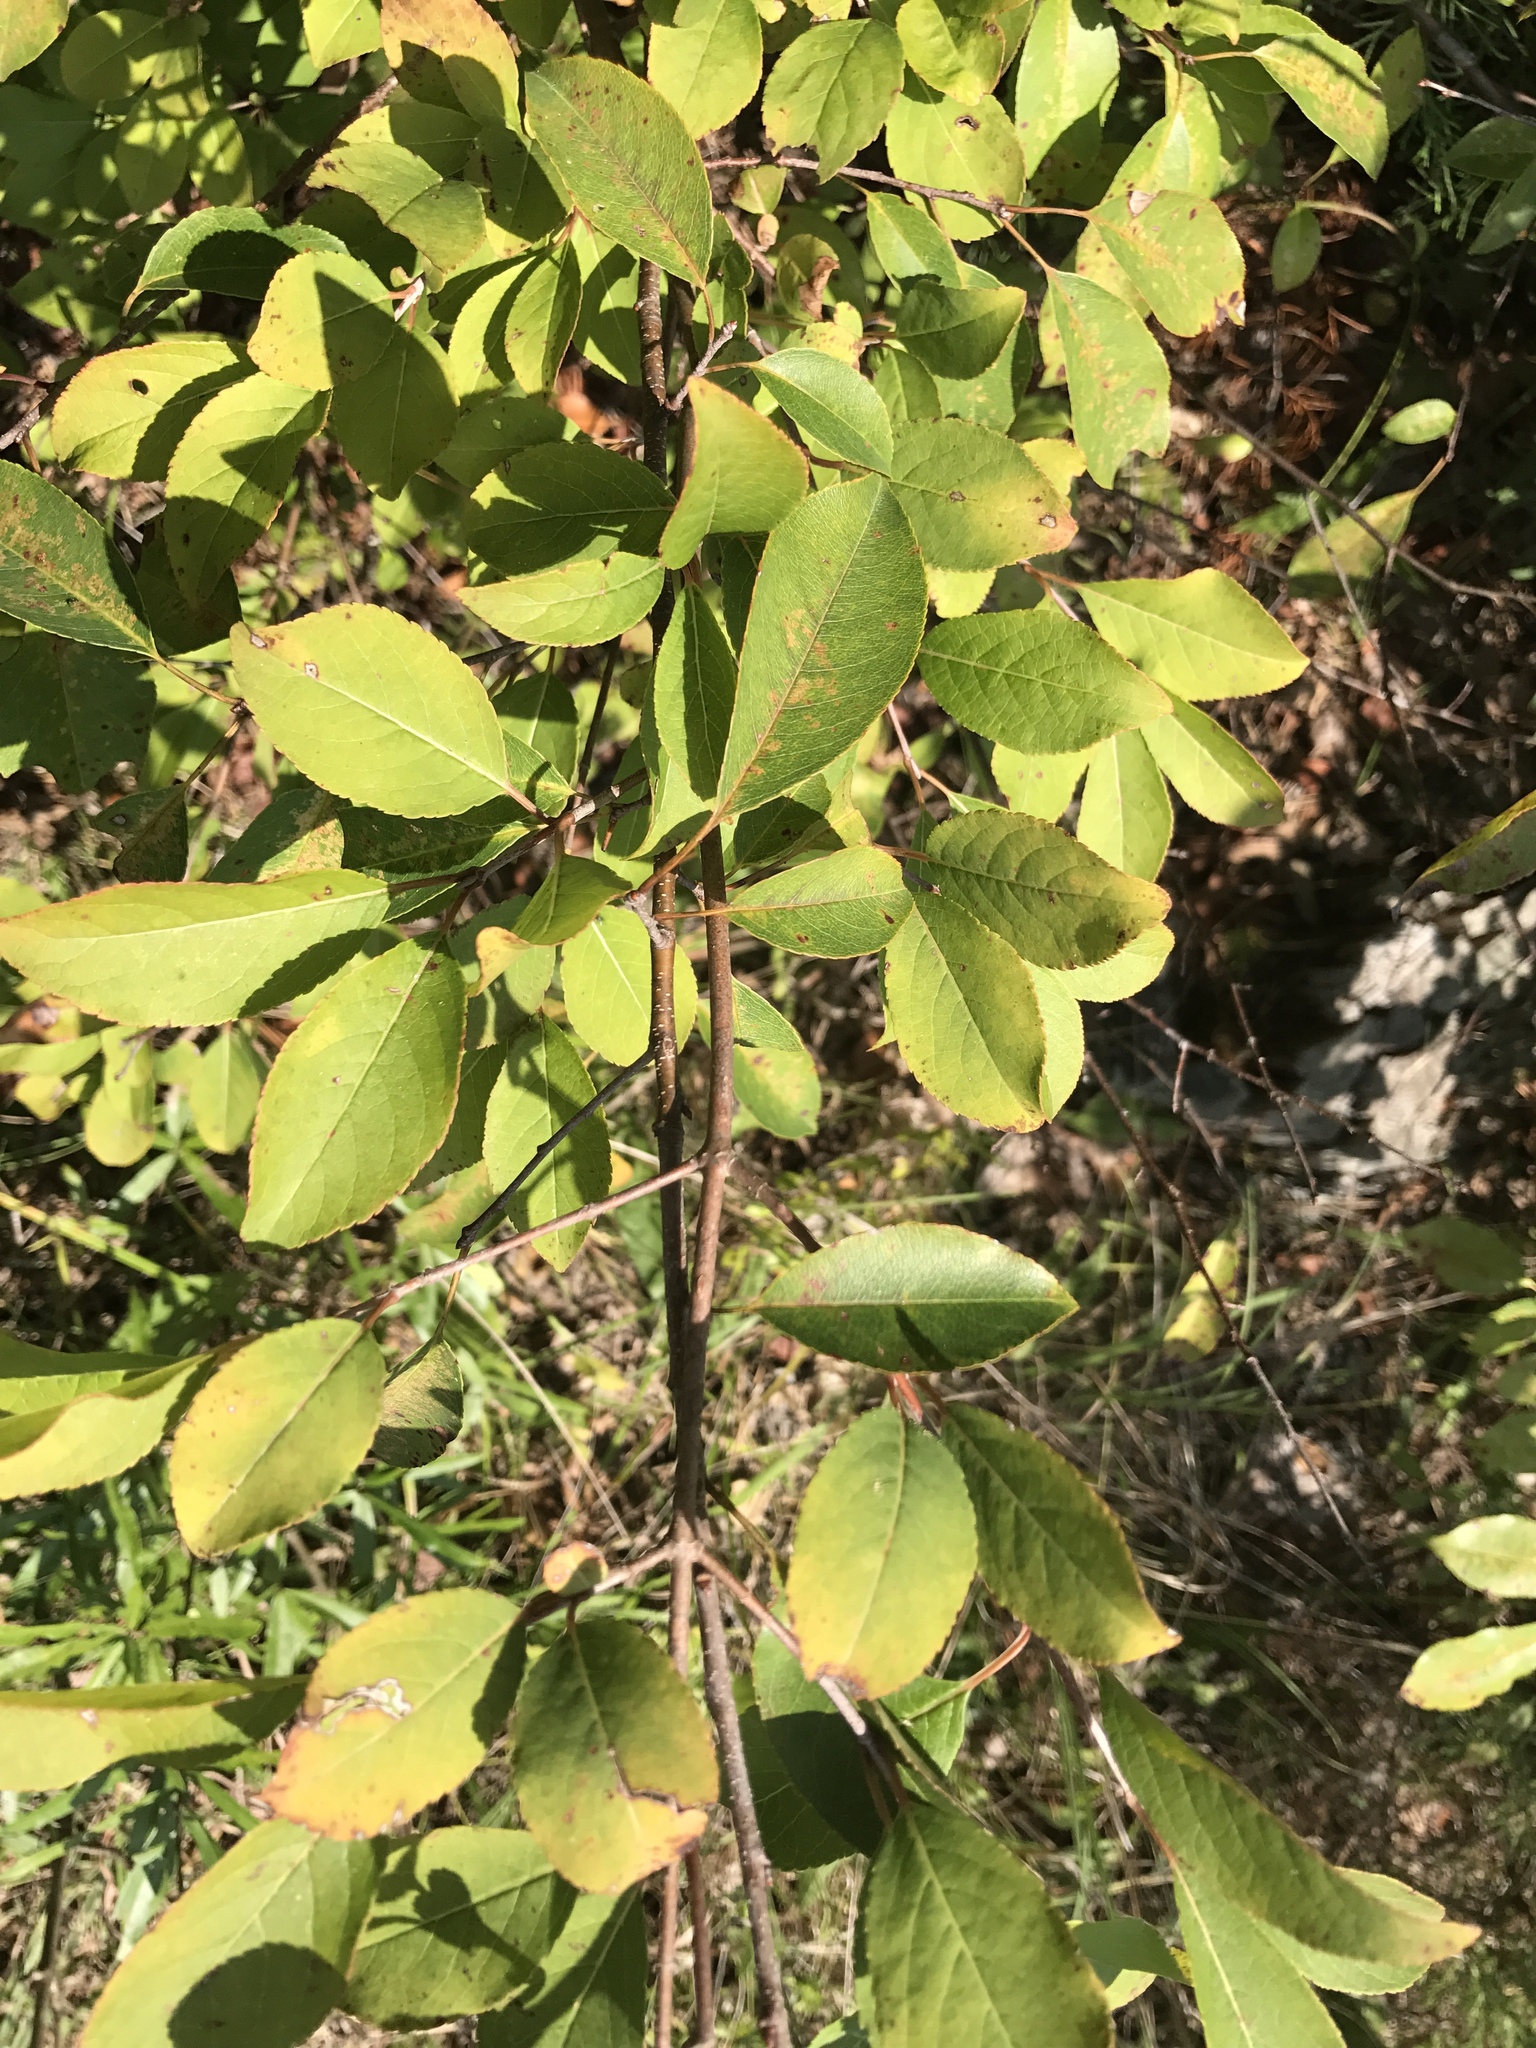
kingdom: Plantae
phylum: Tracheophyta
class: Magnoliopsida
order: Dipsacales
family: Viburnaceae
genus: Viburnum
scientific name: Viburnum prunifolium
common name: Black haw
